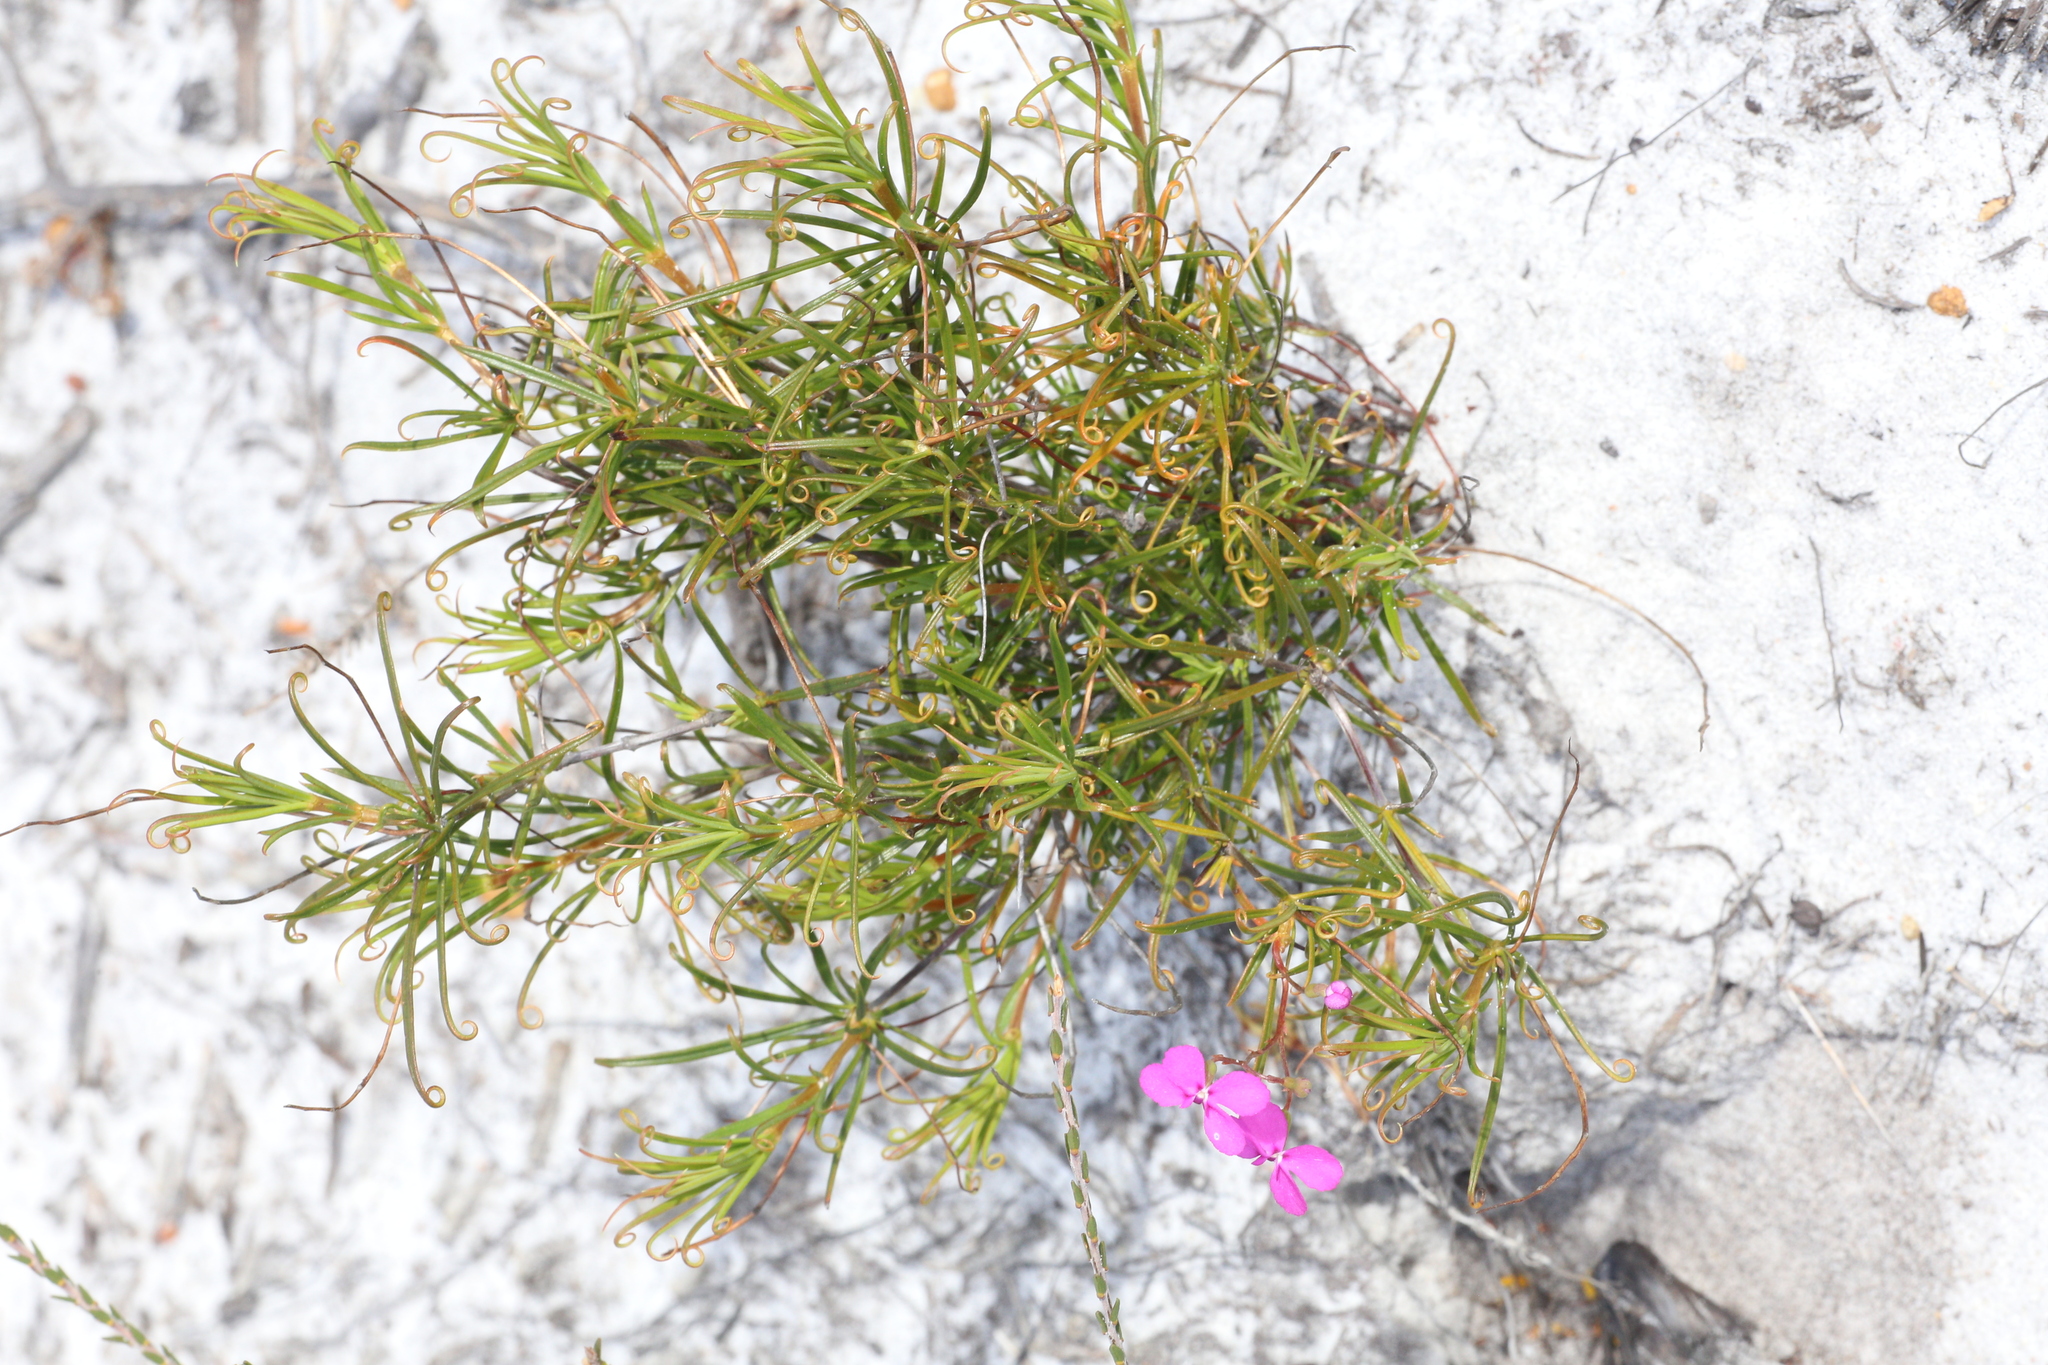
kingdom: Plantae
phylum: Tracheophyta
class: Magnoliopsida
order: Asterales
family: Stylidiaceae
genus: Stylidium
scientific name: Stylidium scandens
